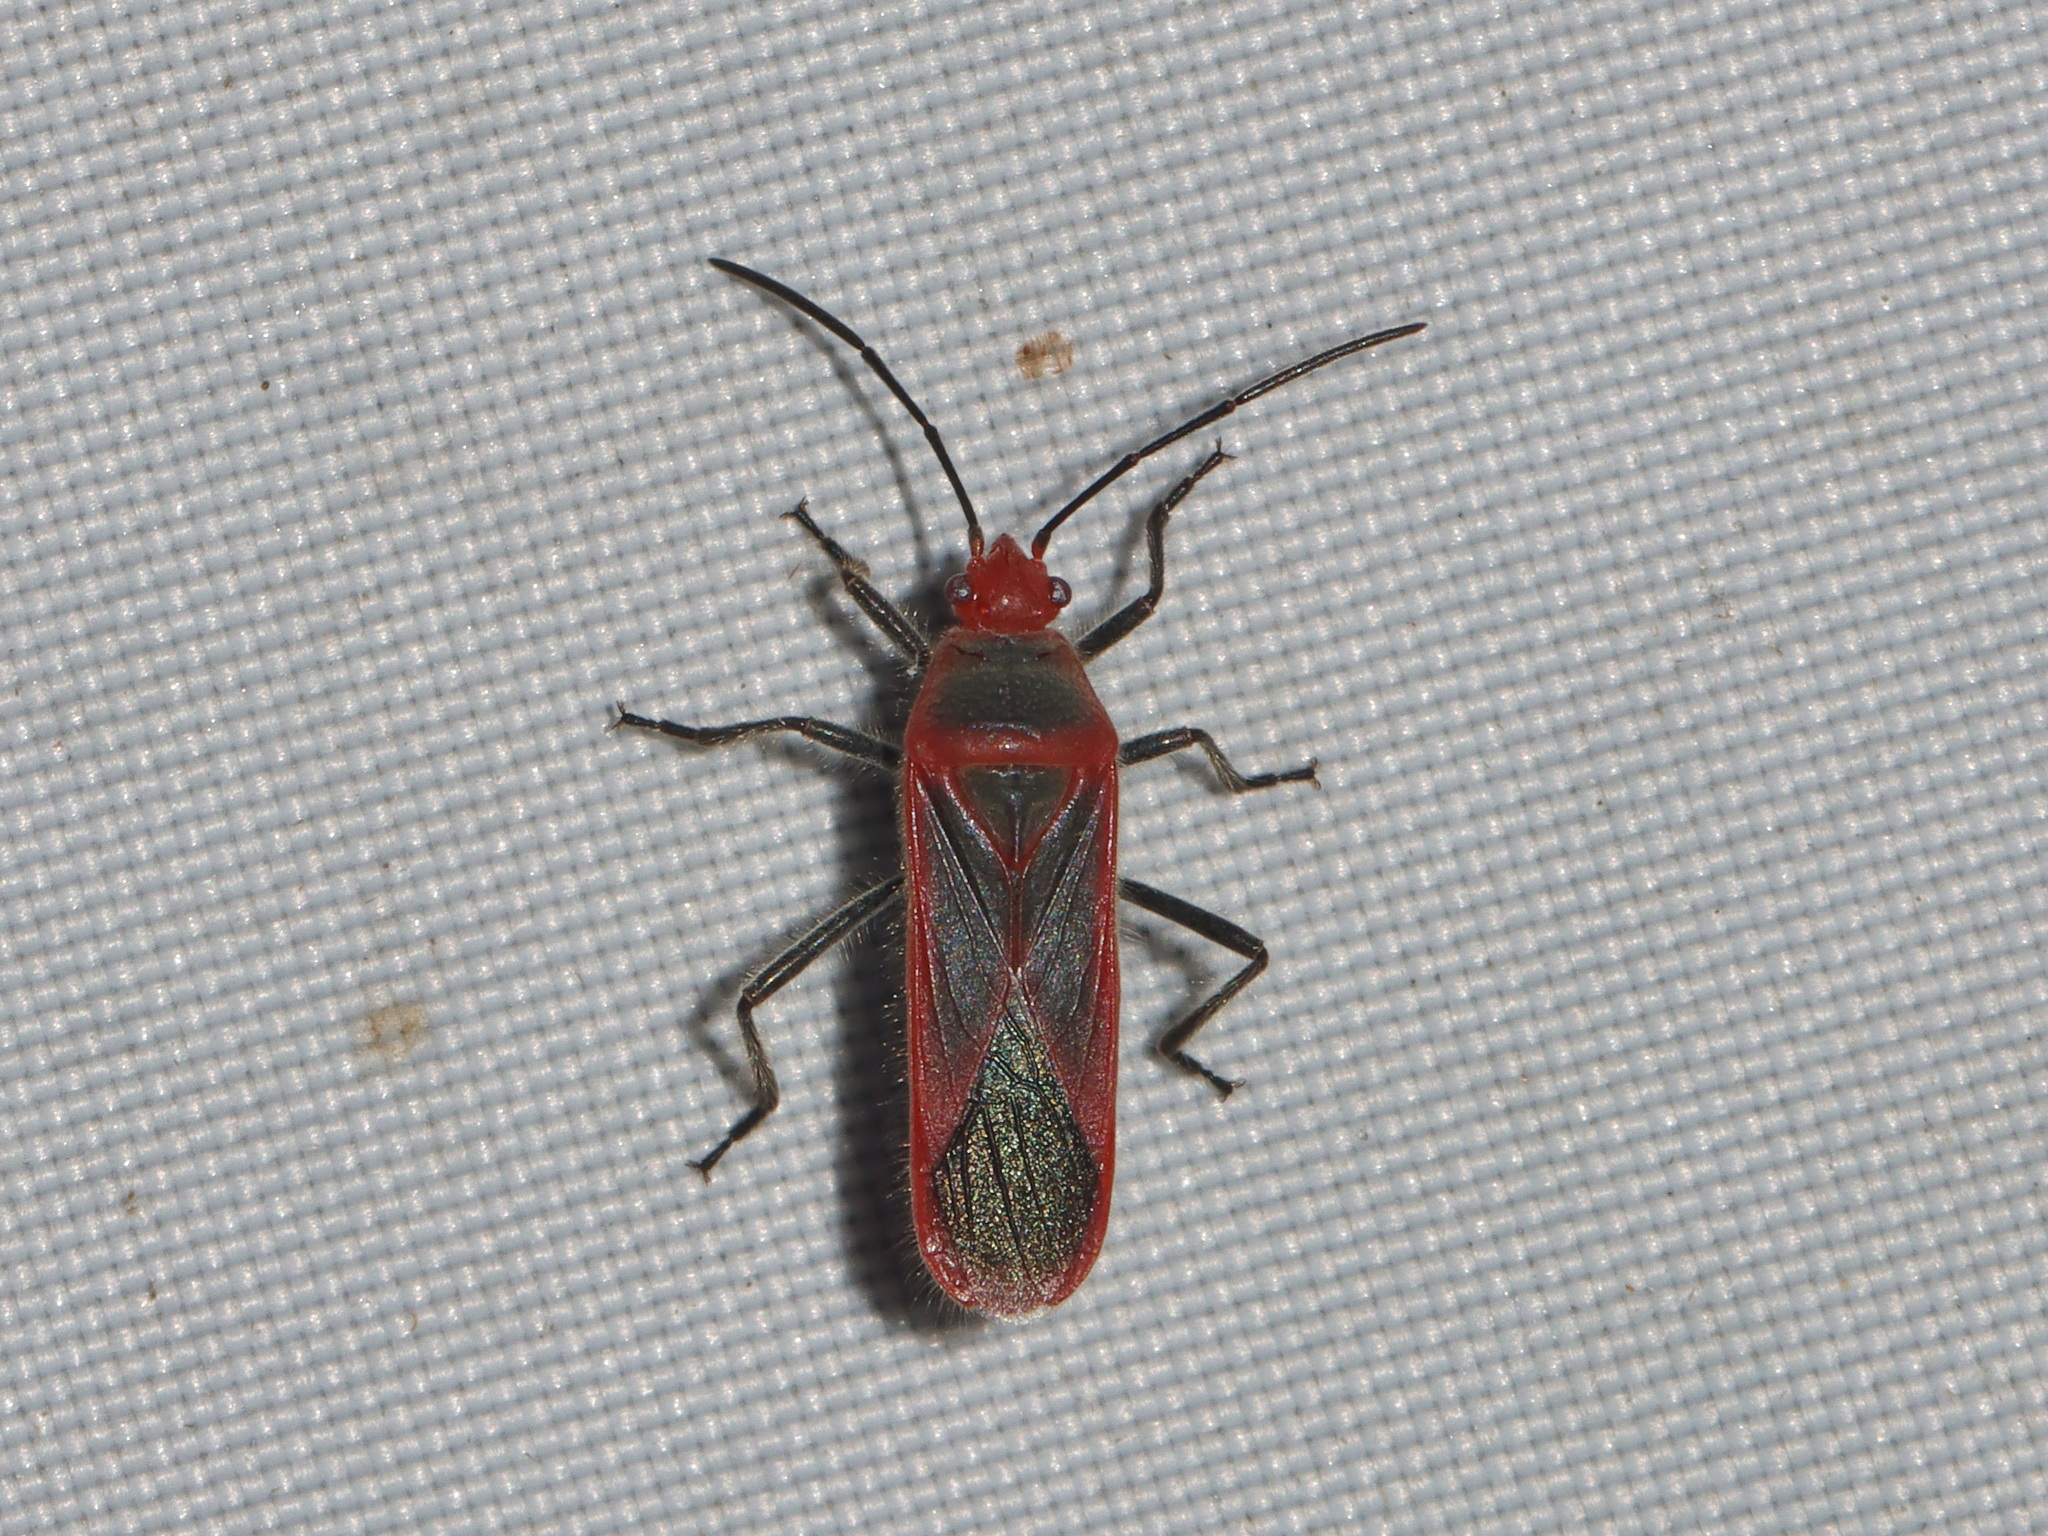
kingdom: Animalia
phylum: Arthropoda
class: Insecta
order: Hemiptera
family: Lygaeidae
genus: Thunbergia
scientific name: Thunbergia marginatus
